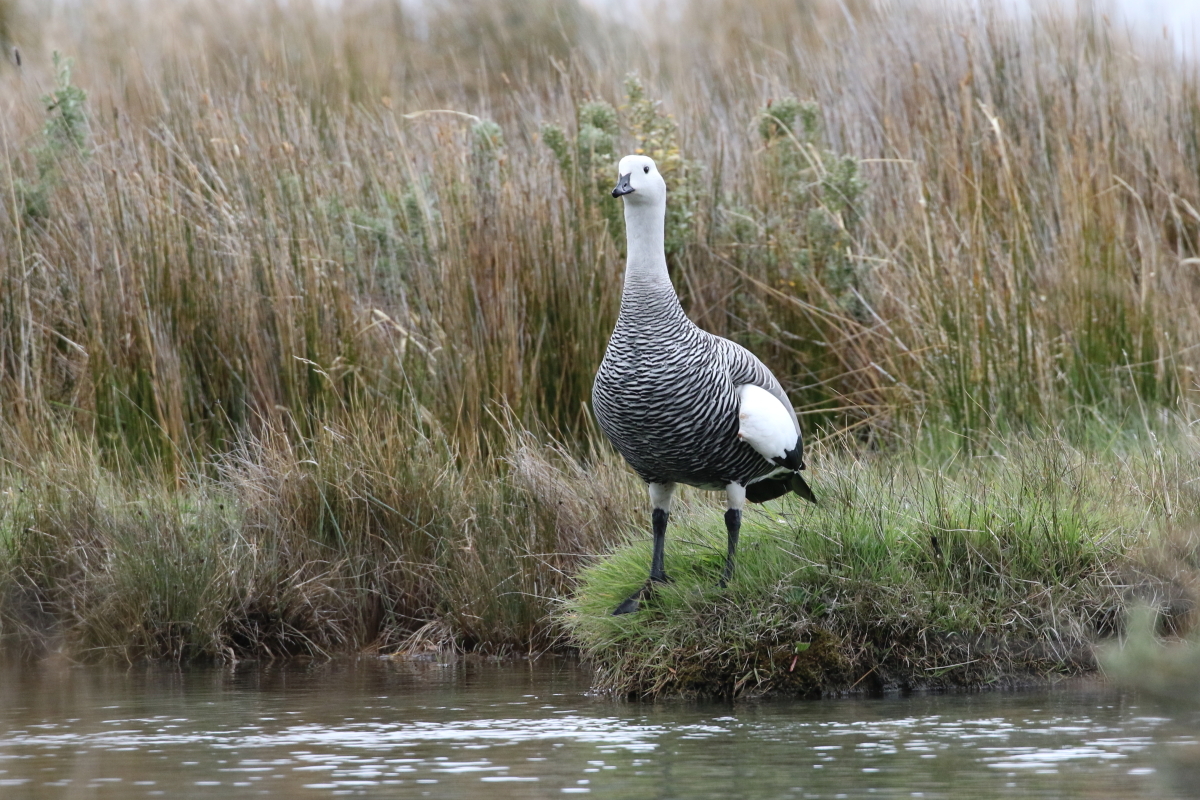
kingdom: Animalia
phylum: Chordata
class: Aves
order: Anseriformes
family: Anatidae
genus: Chloephaga
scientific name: Chloephaga picta
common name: Upland goose
